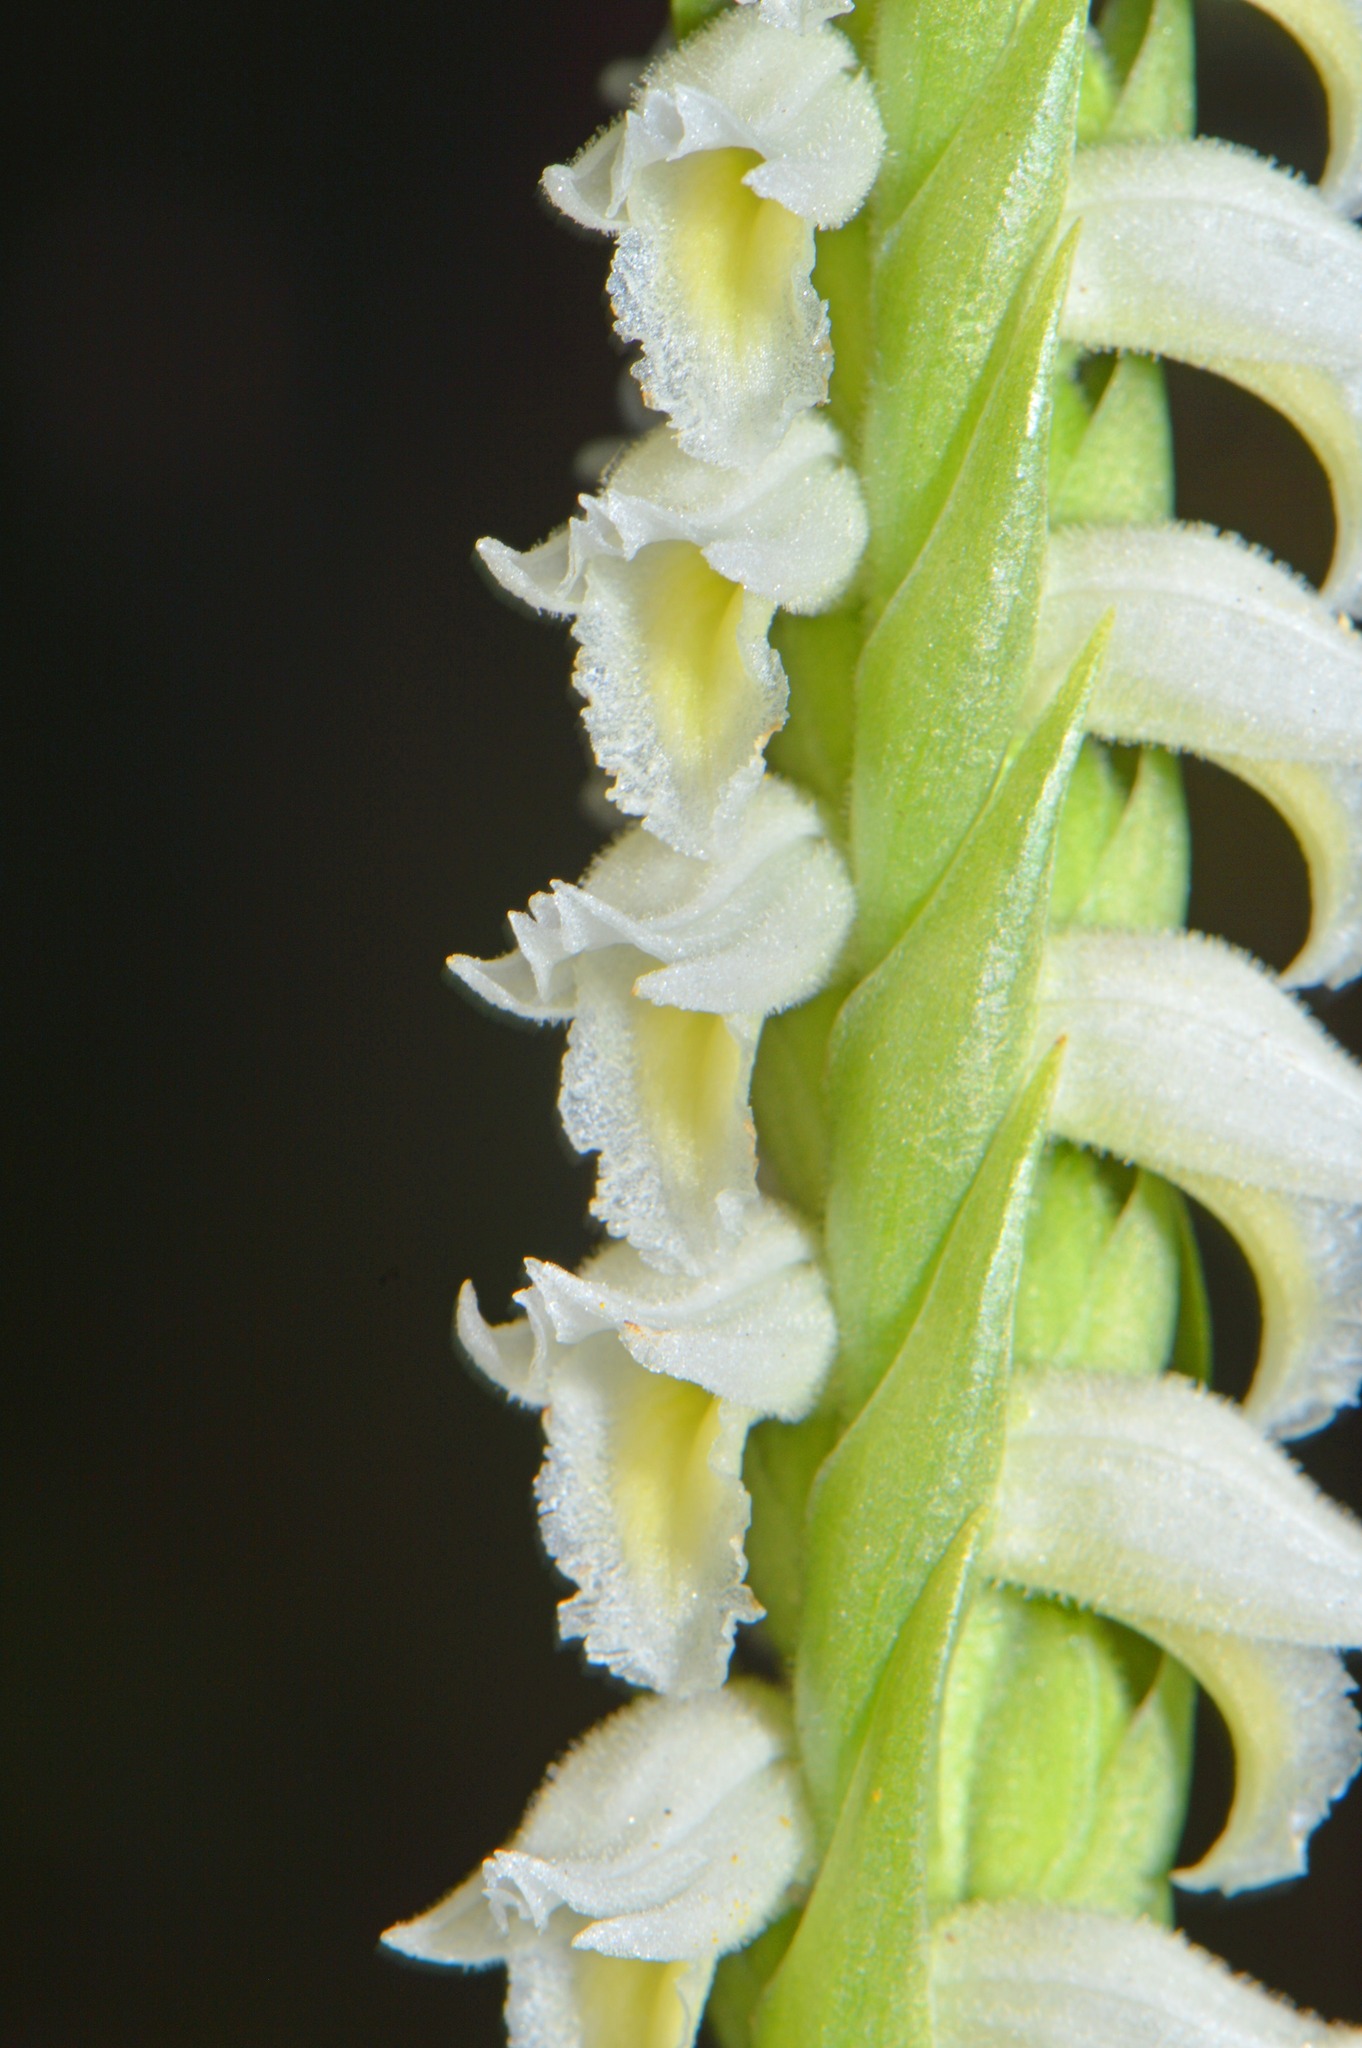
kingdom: Plantae
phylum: Tracheophyta
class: Liliopsida
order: Asparagales
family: Orchidaceae
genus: Spiranthes
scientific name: Spiranthes odorata
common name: Marsh ladies'-tresses
